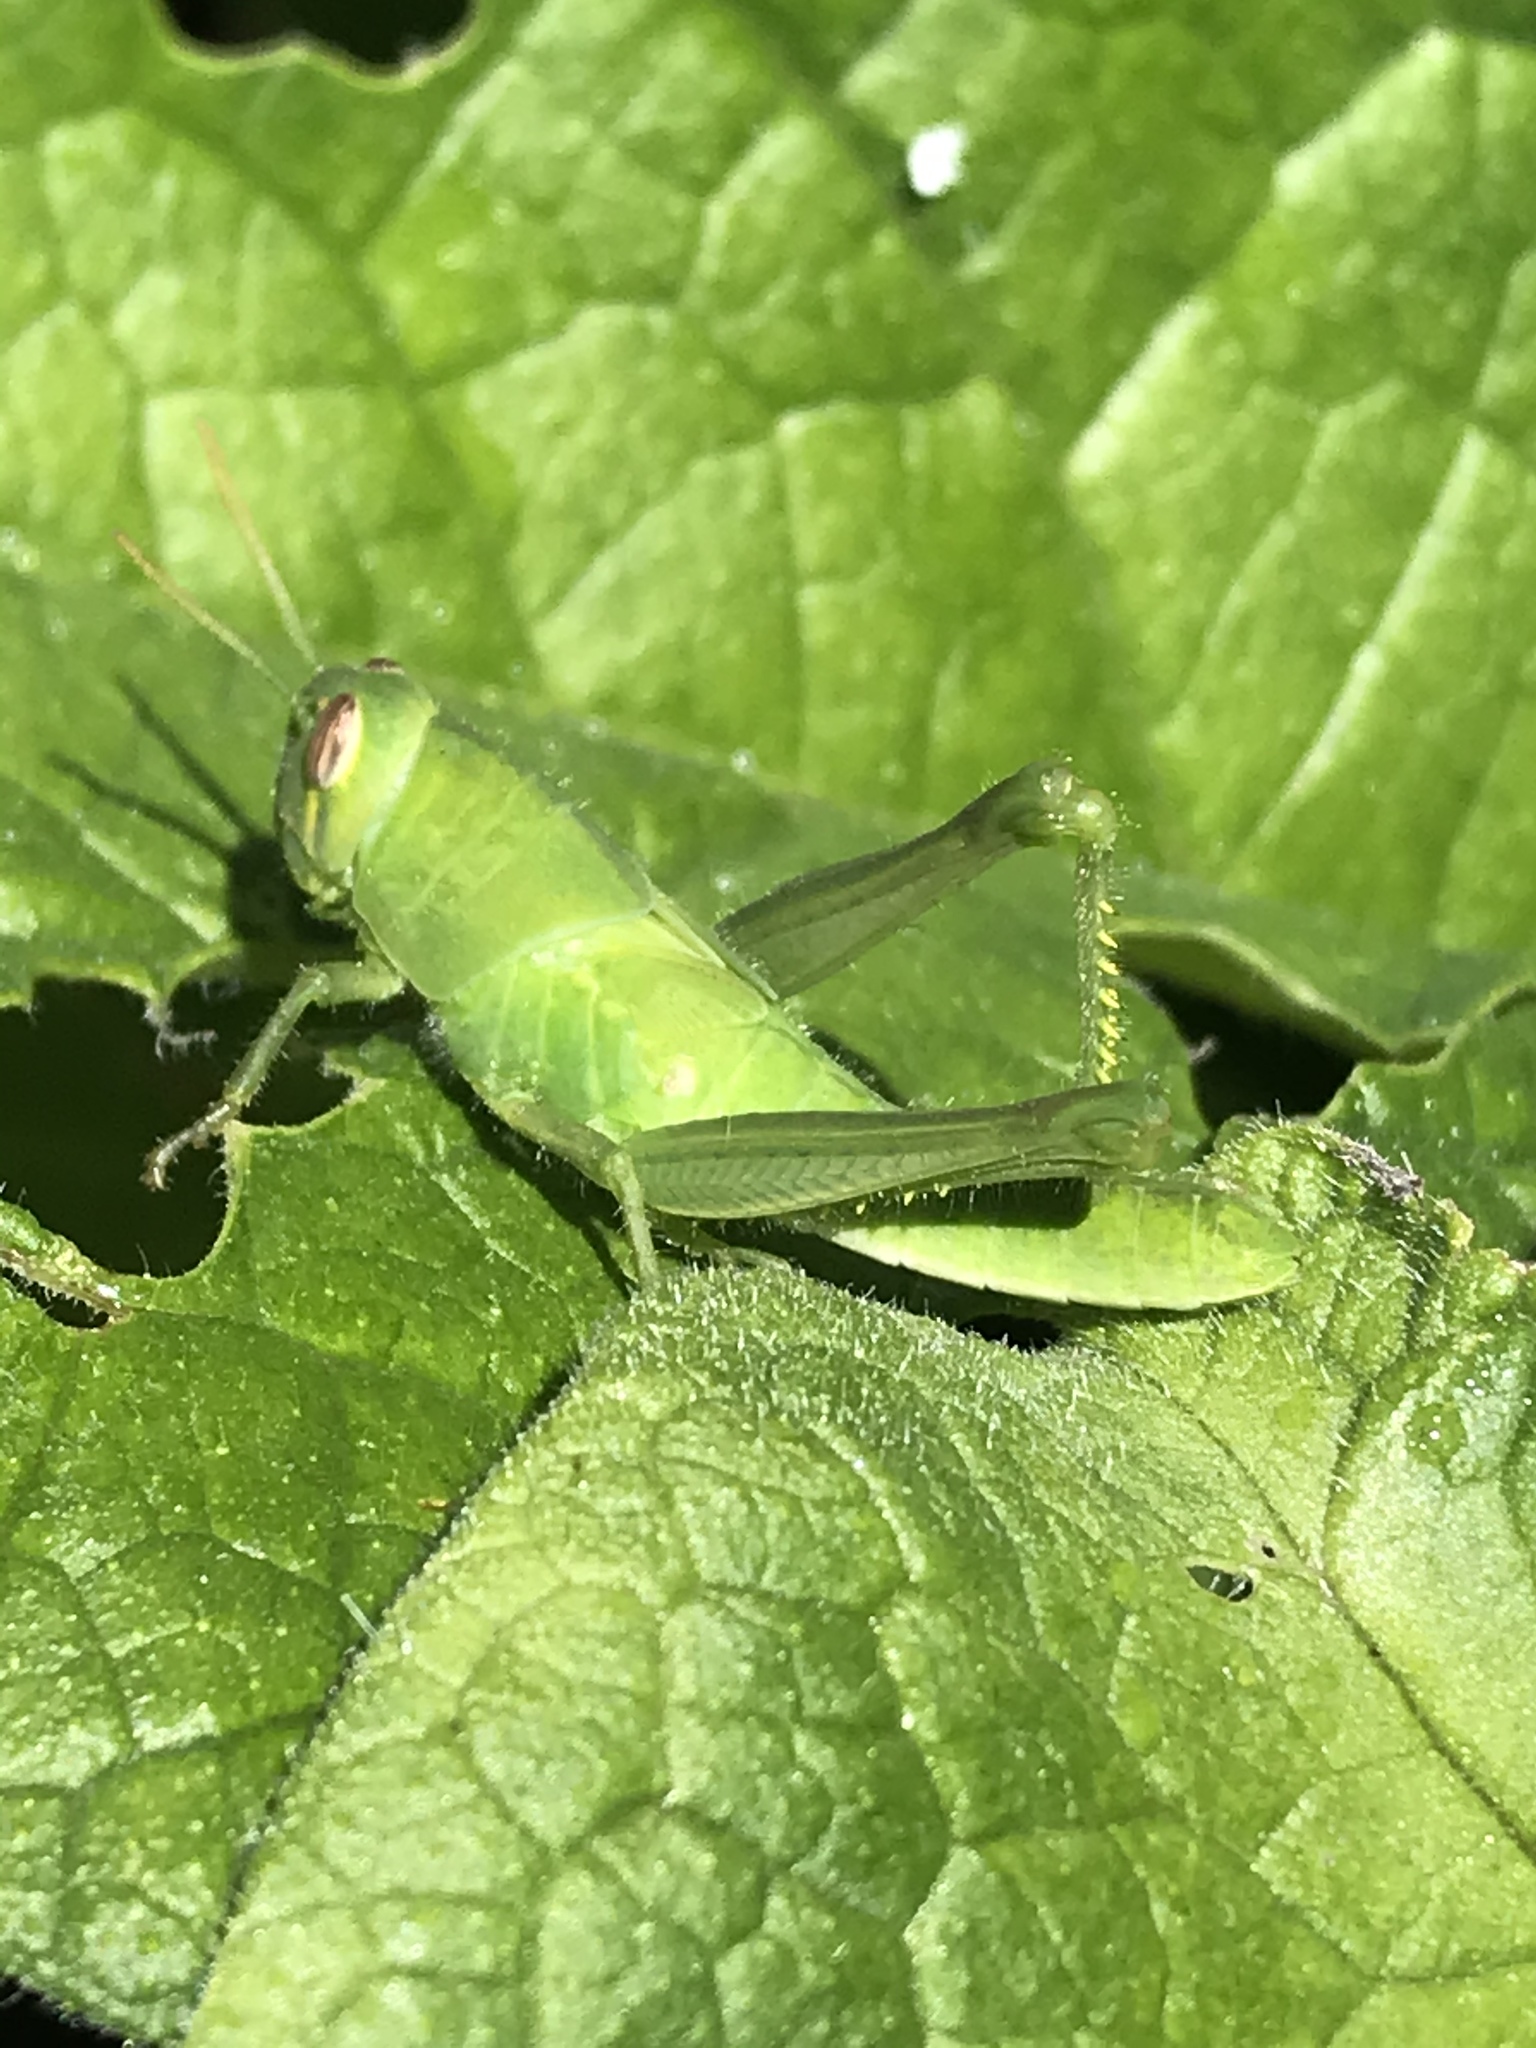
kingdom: Animalia
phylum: Arthropoda
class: Insecta
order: Orthoptera
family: Acrididae
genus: Schistocerca
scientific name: Schistocerca nitens
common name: Vagrant grasshopper
